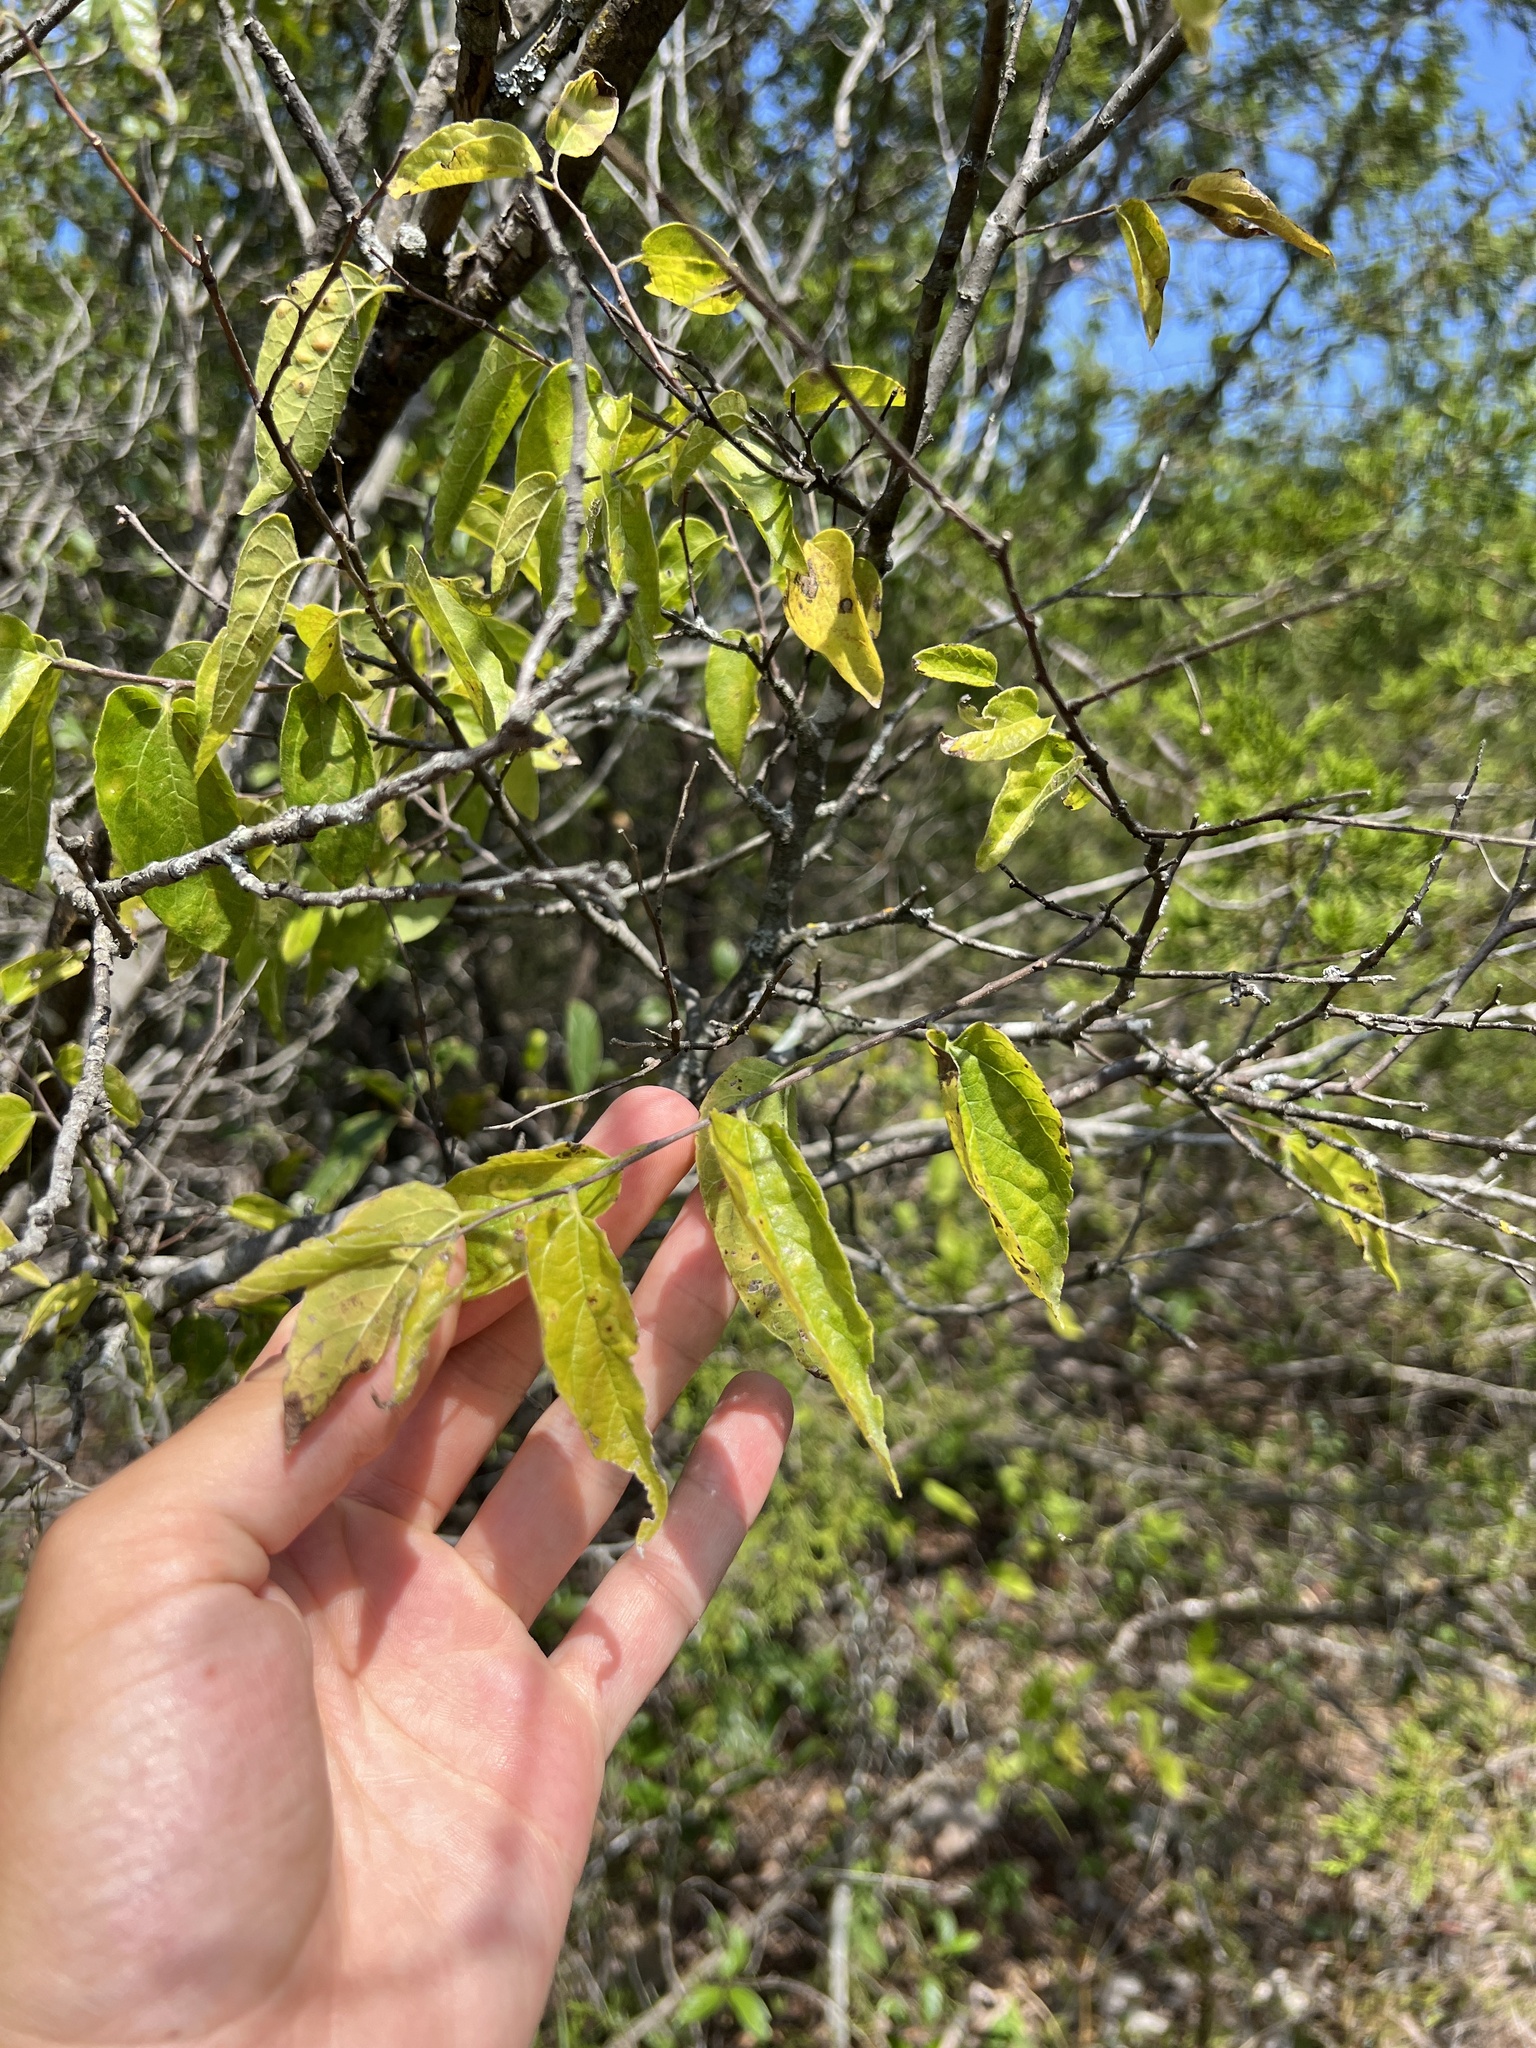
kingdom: Plantae
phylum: Tracheophyta
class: Magnoliopsida
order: Rosales
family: Cannabaceae
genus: Celtis
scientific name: Celtis tenuifolia
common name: Georgia hackberry
